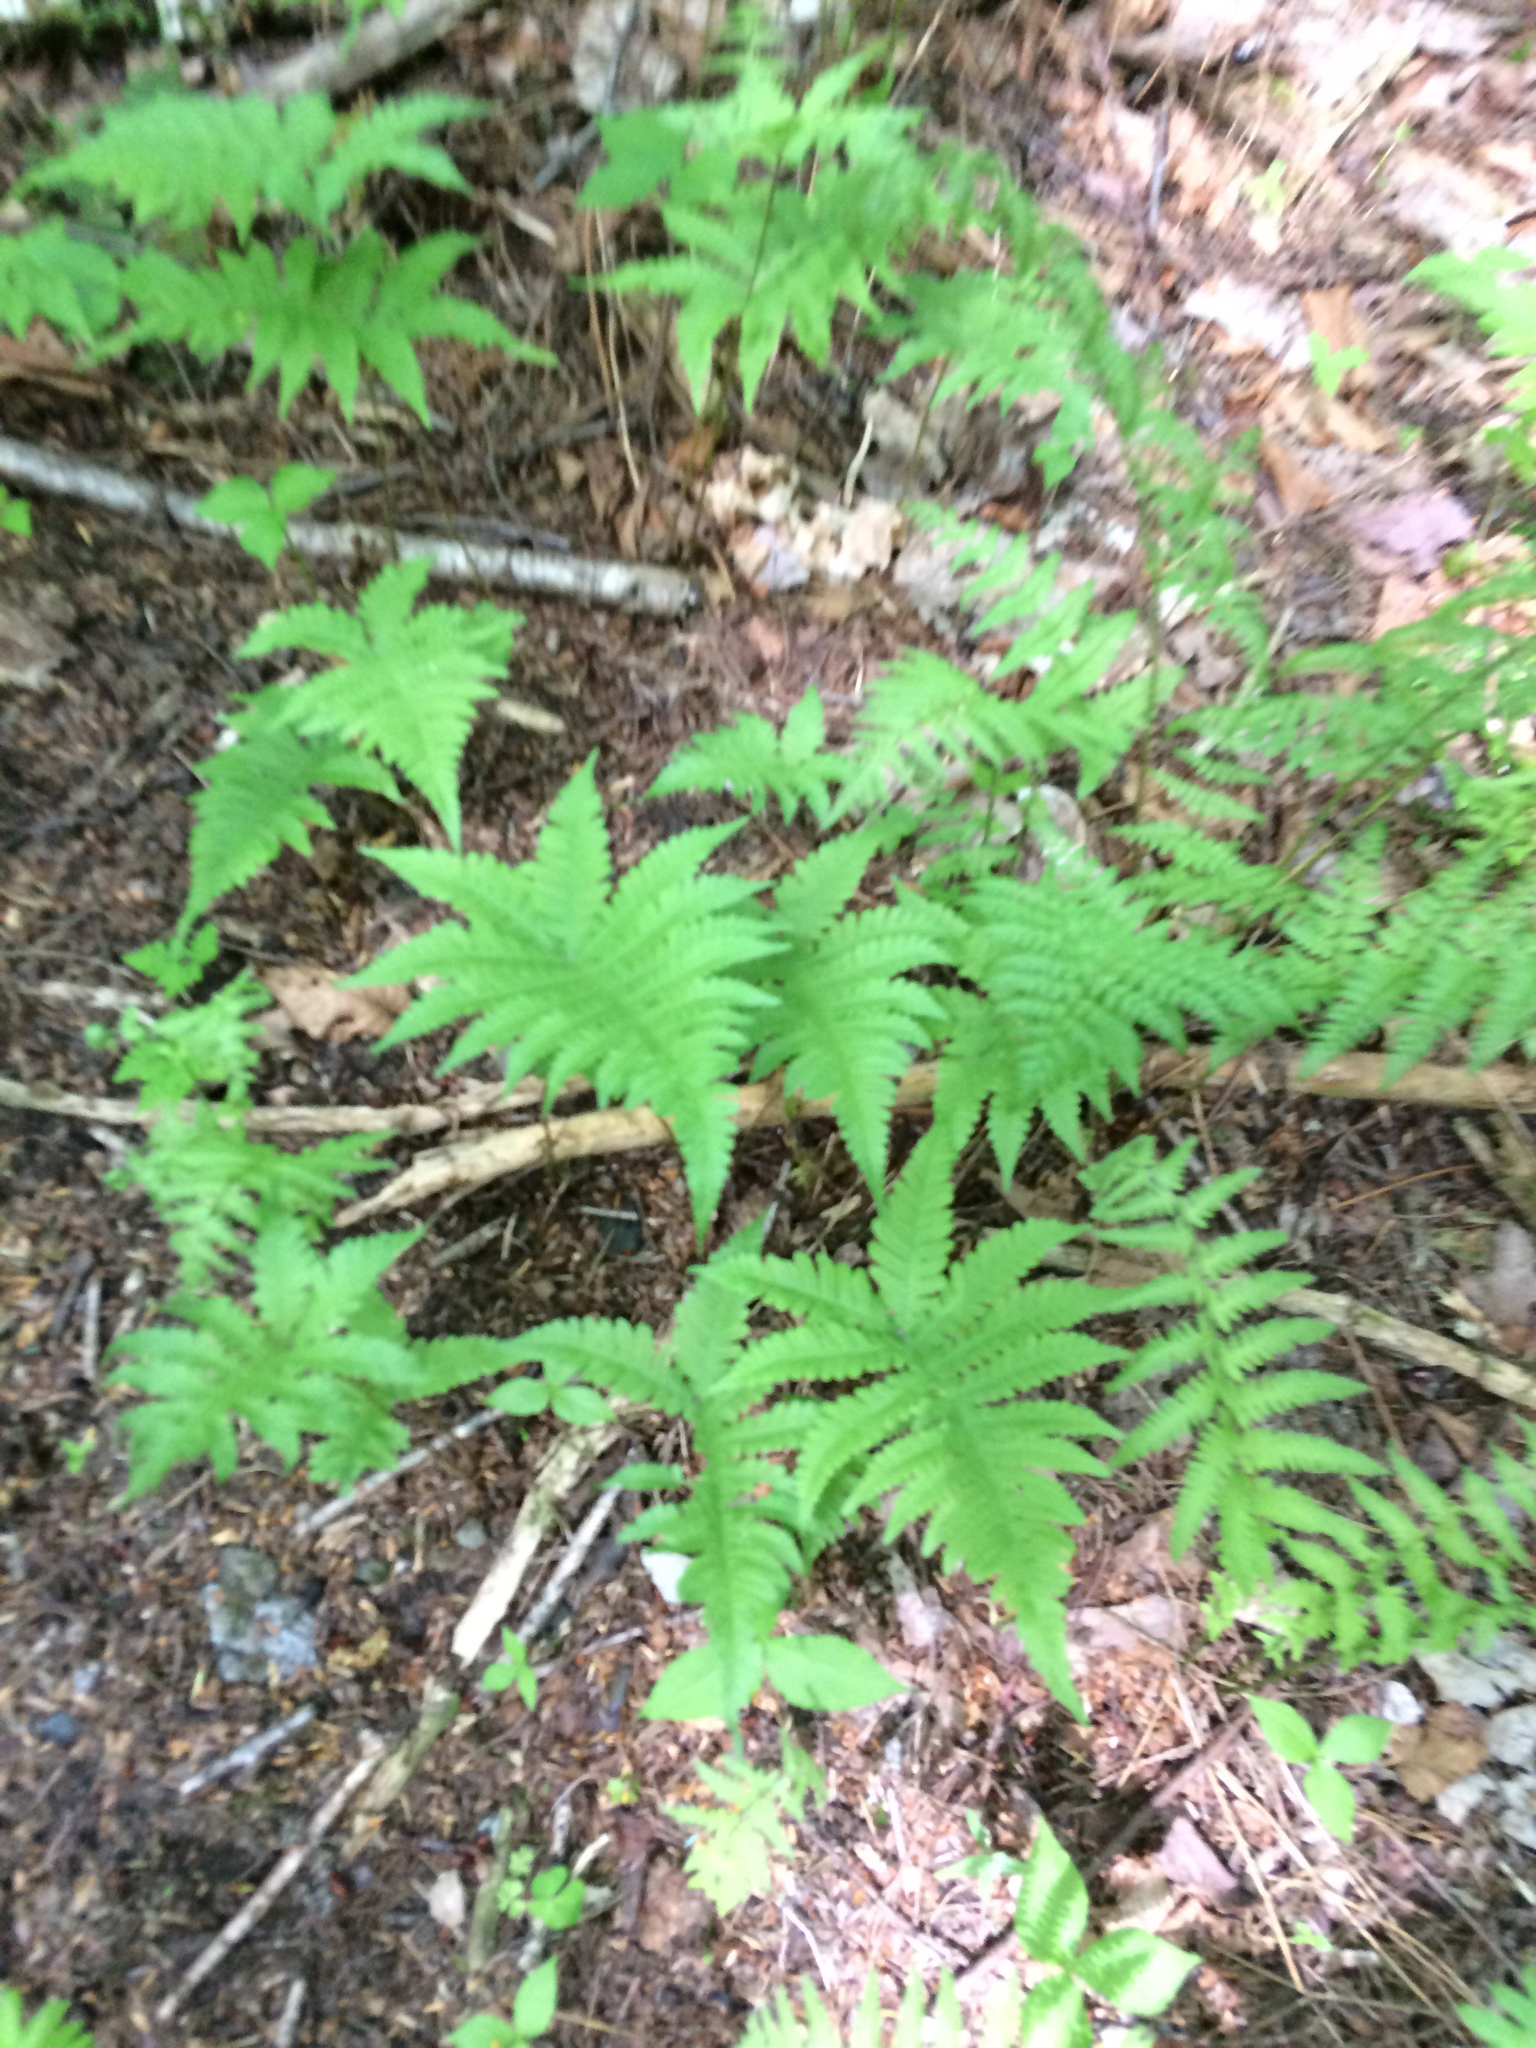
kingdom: Plantae
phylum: Tracheophyta
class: Polypodiopsida
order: Polypodiales
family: Thelypteridaceae
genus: Phegopteris
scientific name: Phegopteris connectilis
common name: Beech fern
